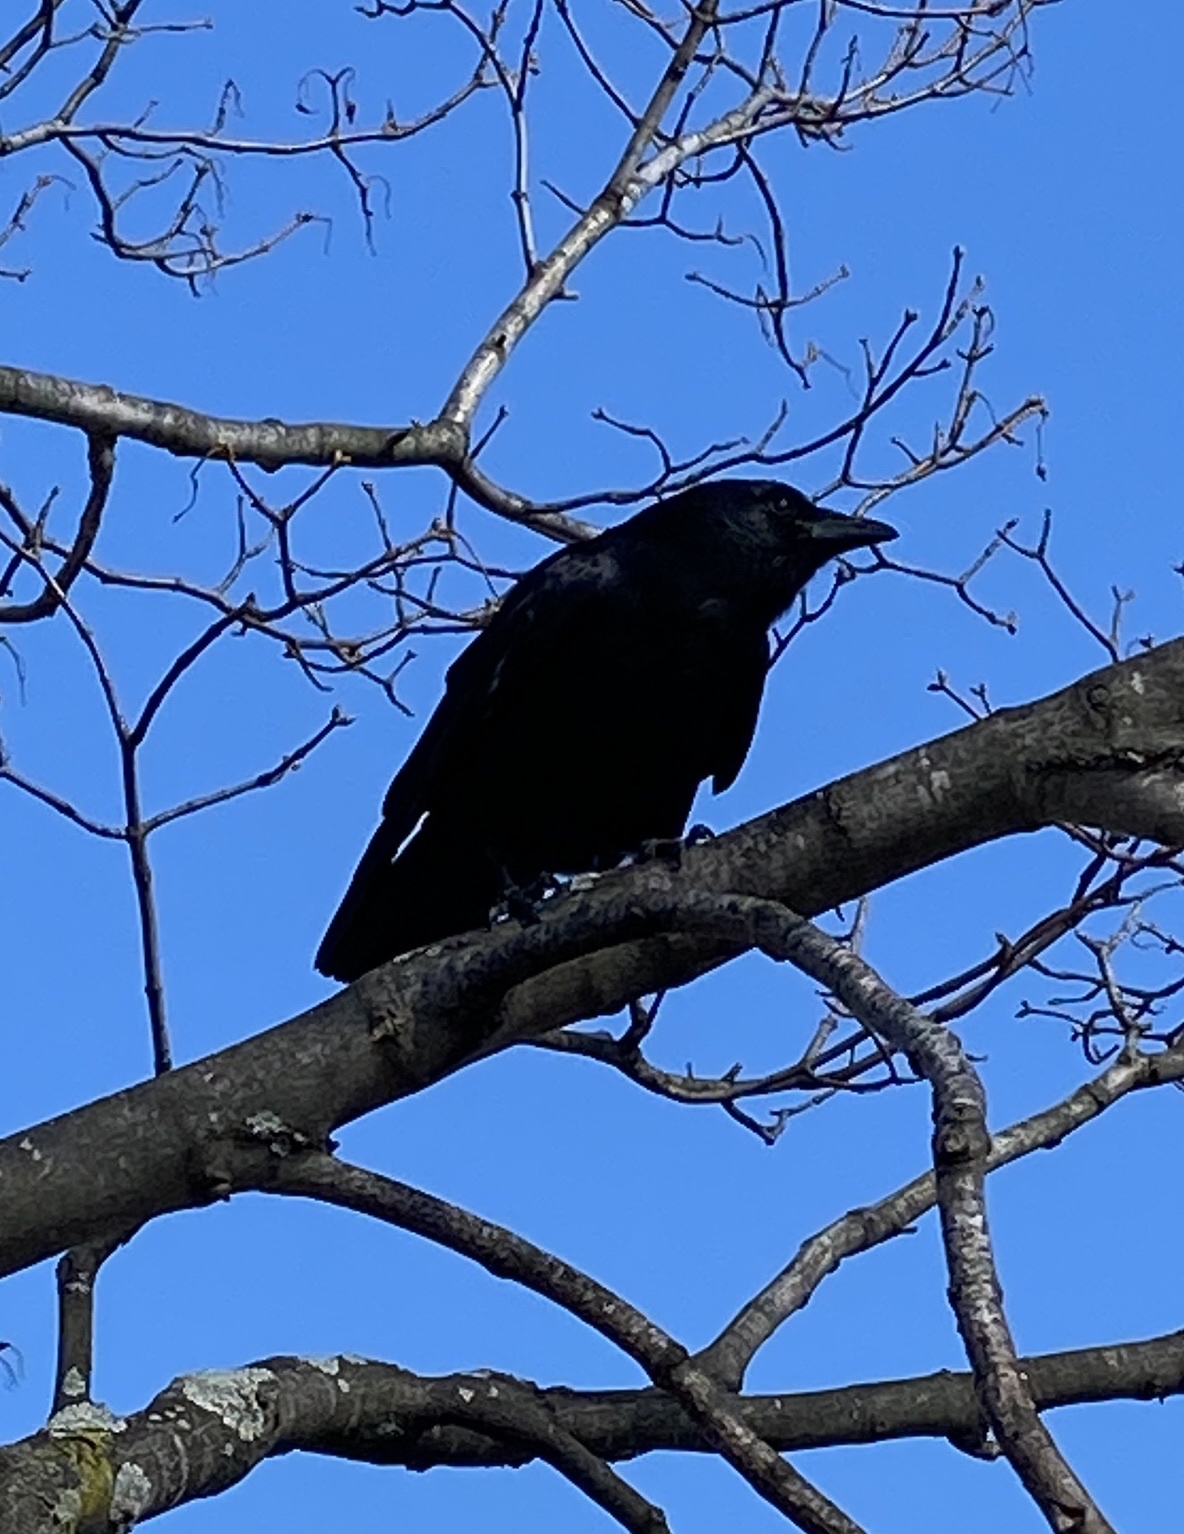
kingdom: Animalia
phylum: Chordata
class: Aves
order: Passeriformes
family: Corvidae
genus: Corvus
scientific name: Corvus ossifragus
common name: Fish crow
